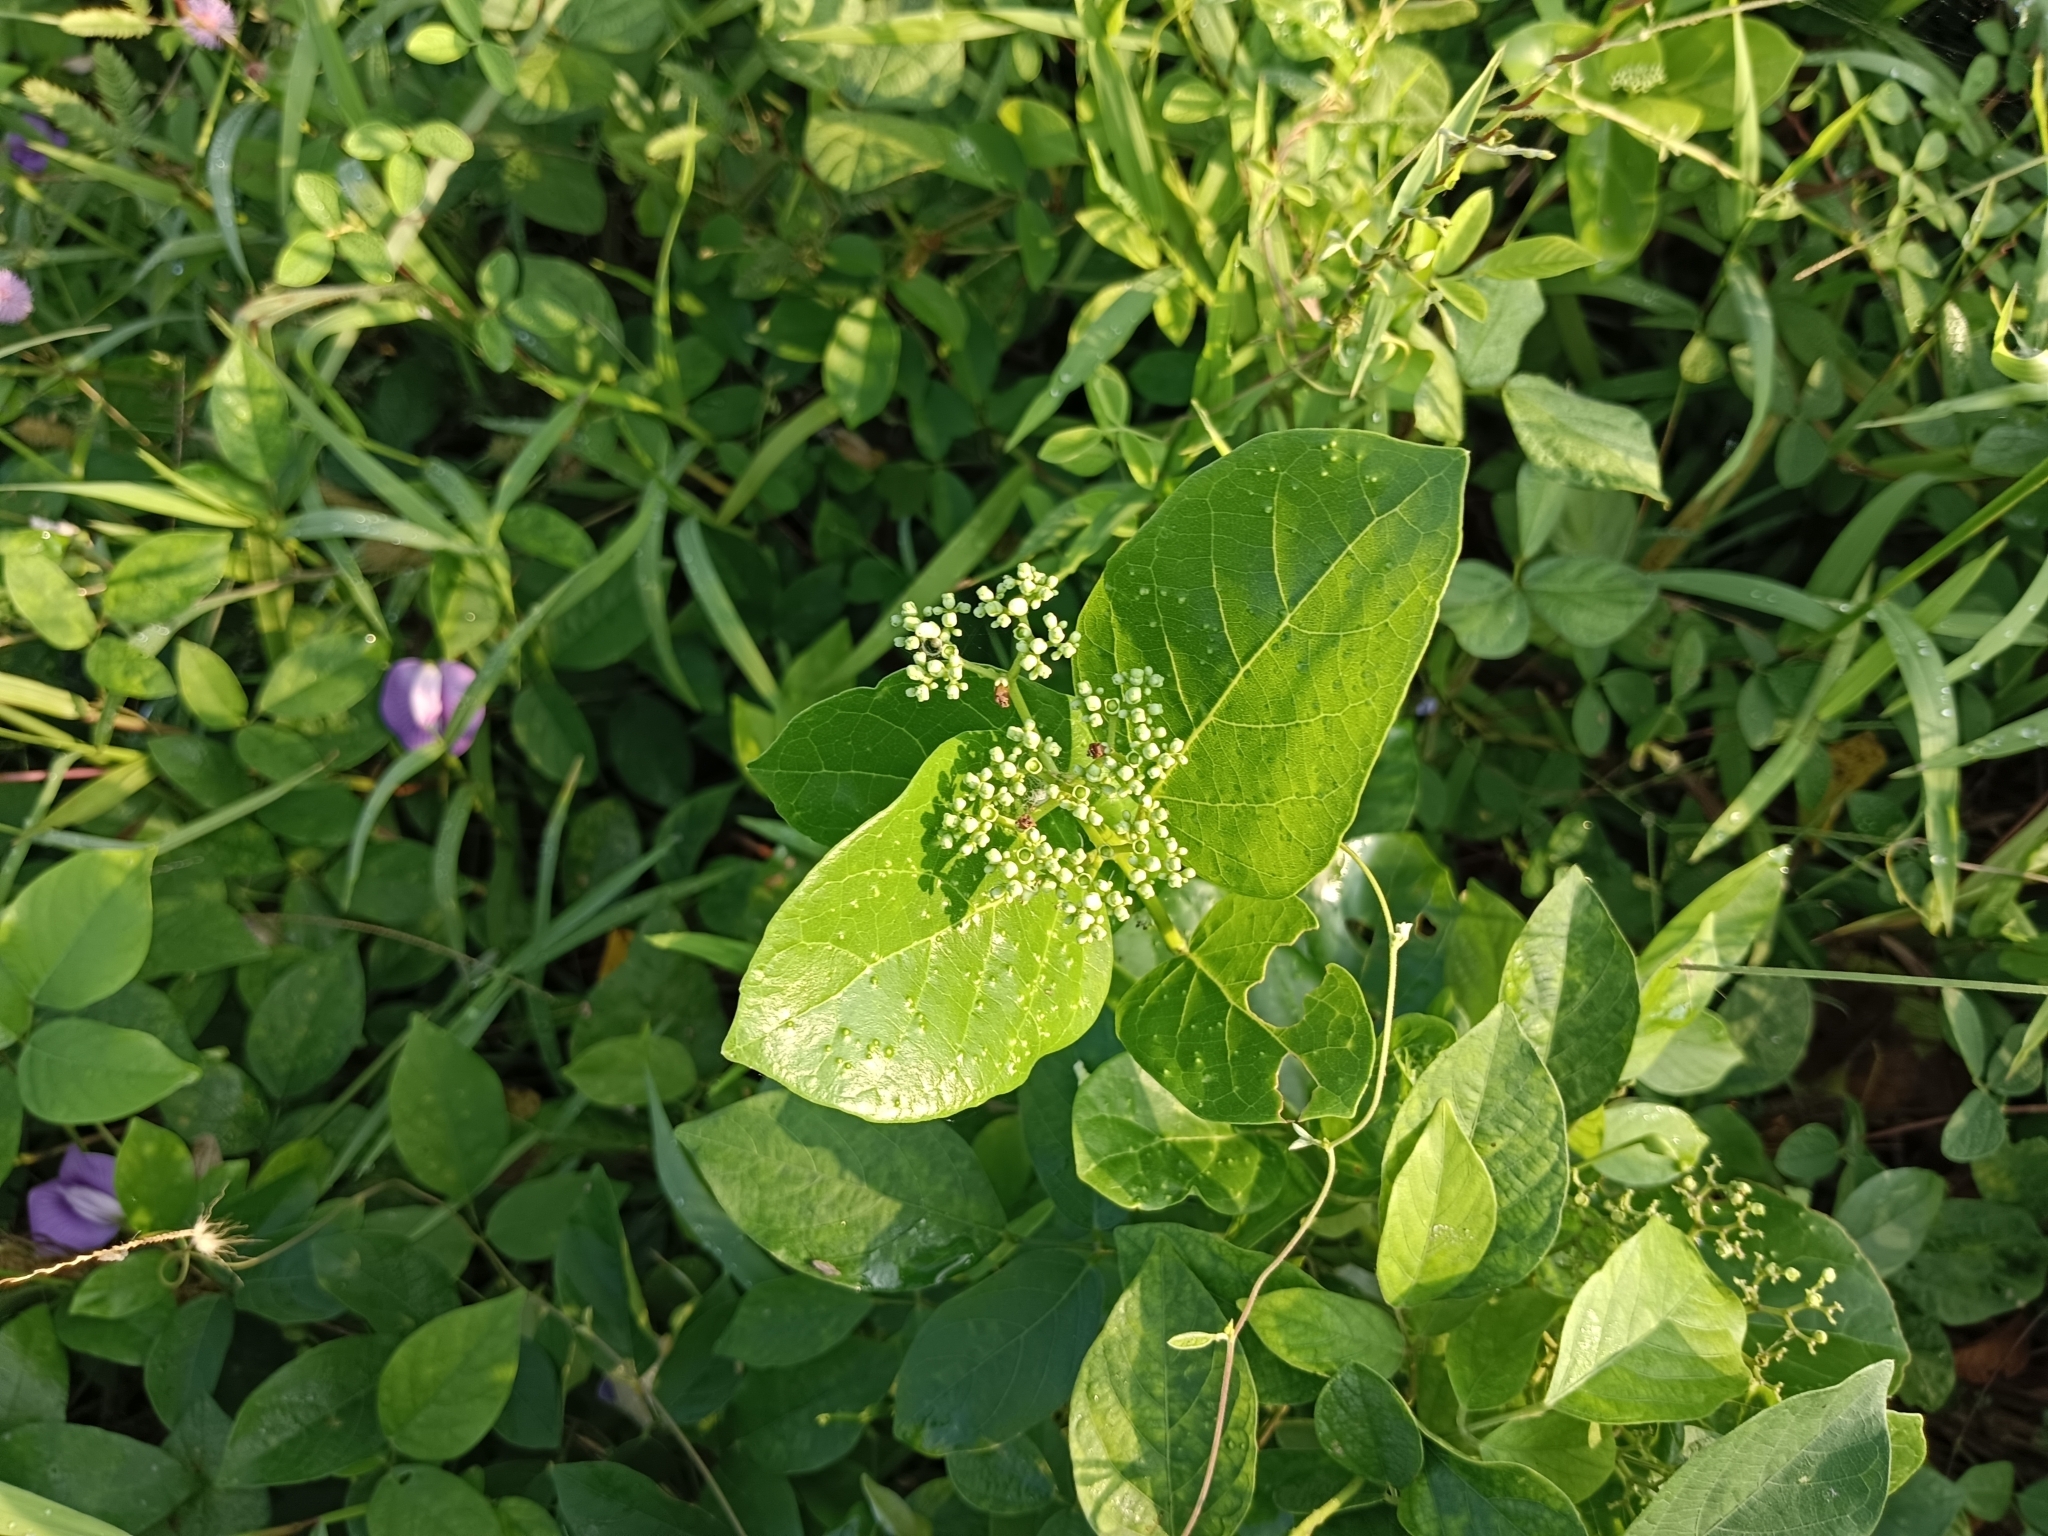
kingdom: Plantae
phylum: Tracheophyta
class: Magnoliopsida
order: Lamiales
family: Lamiaceae
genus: Premna
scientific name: Premna serratifolia
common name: Bastard guelder
